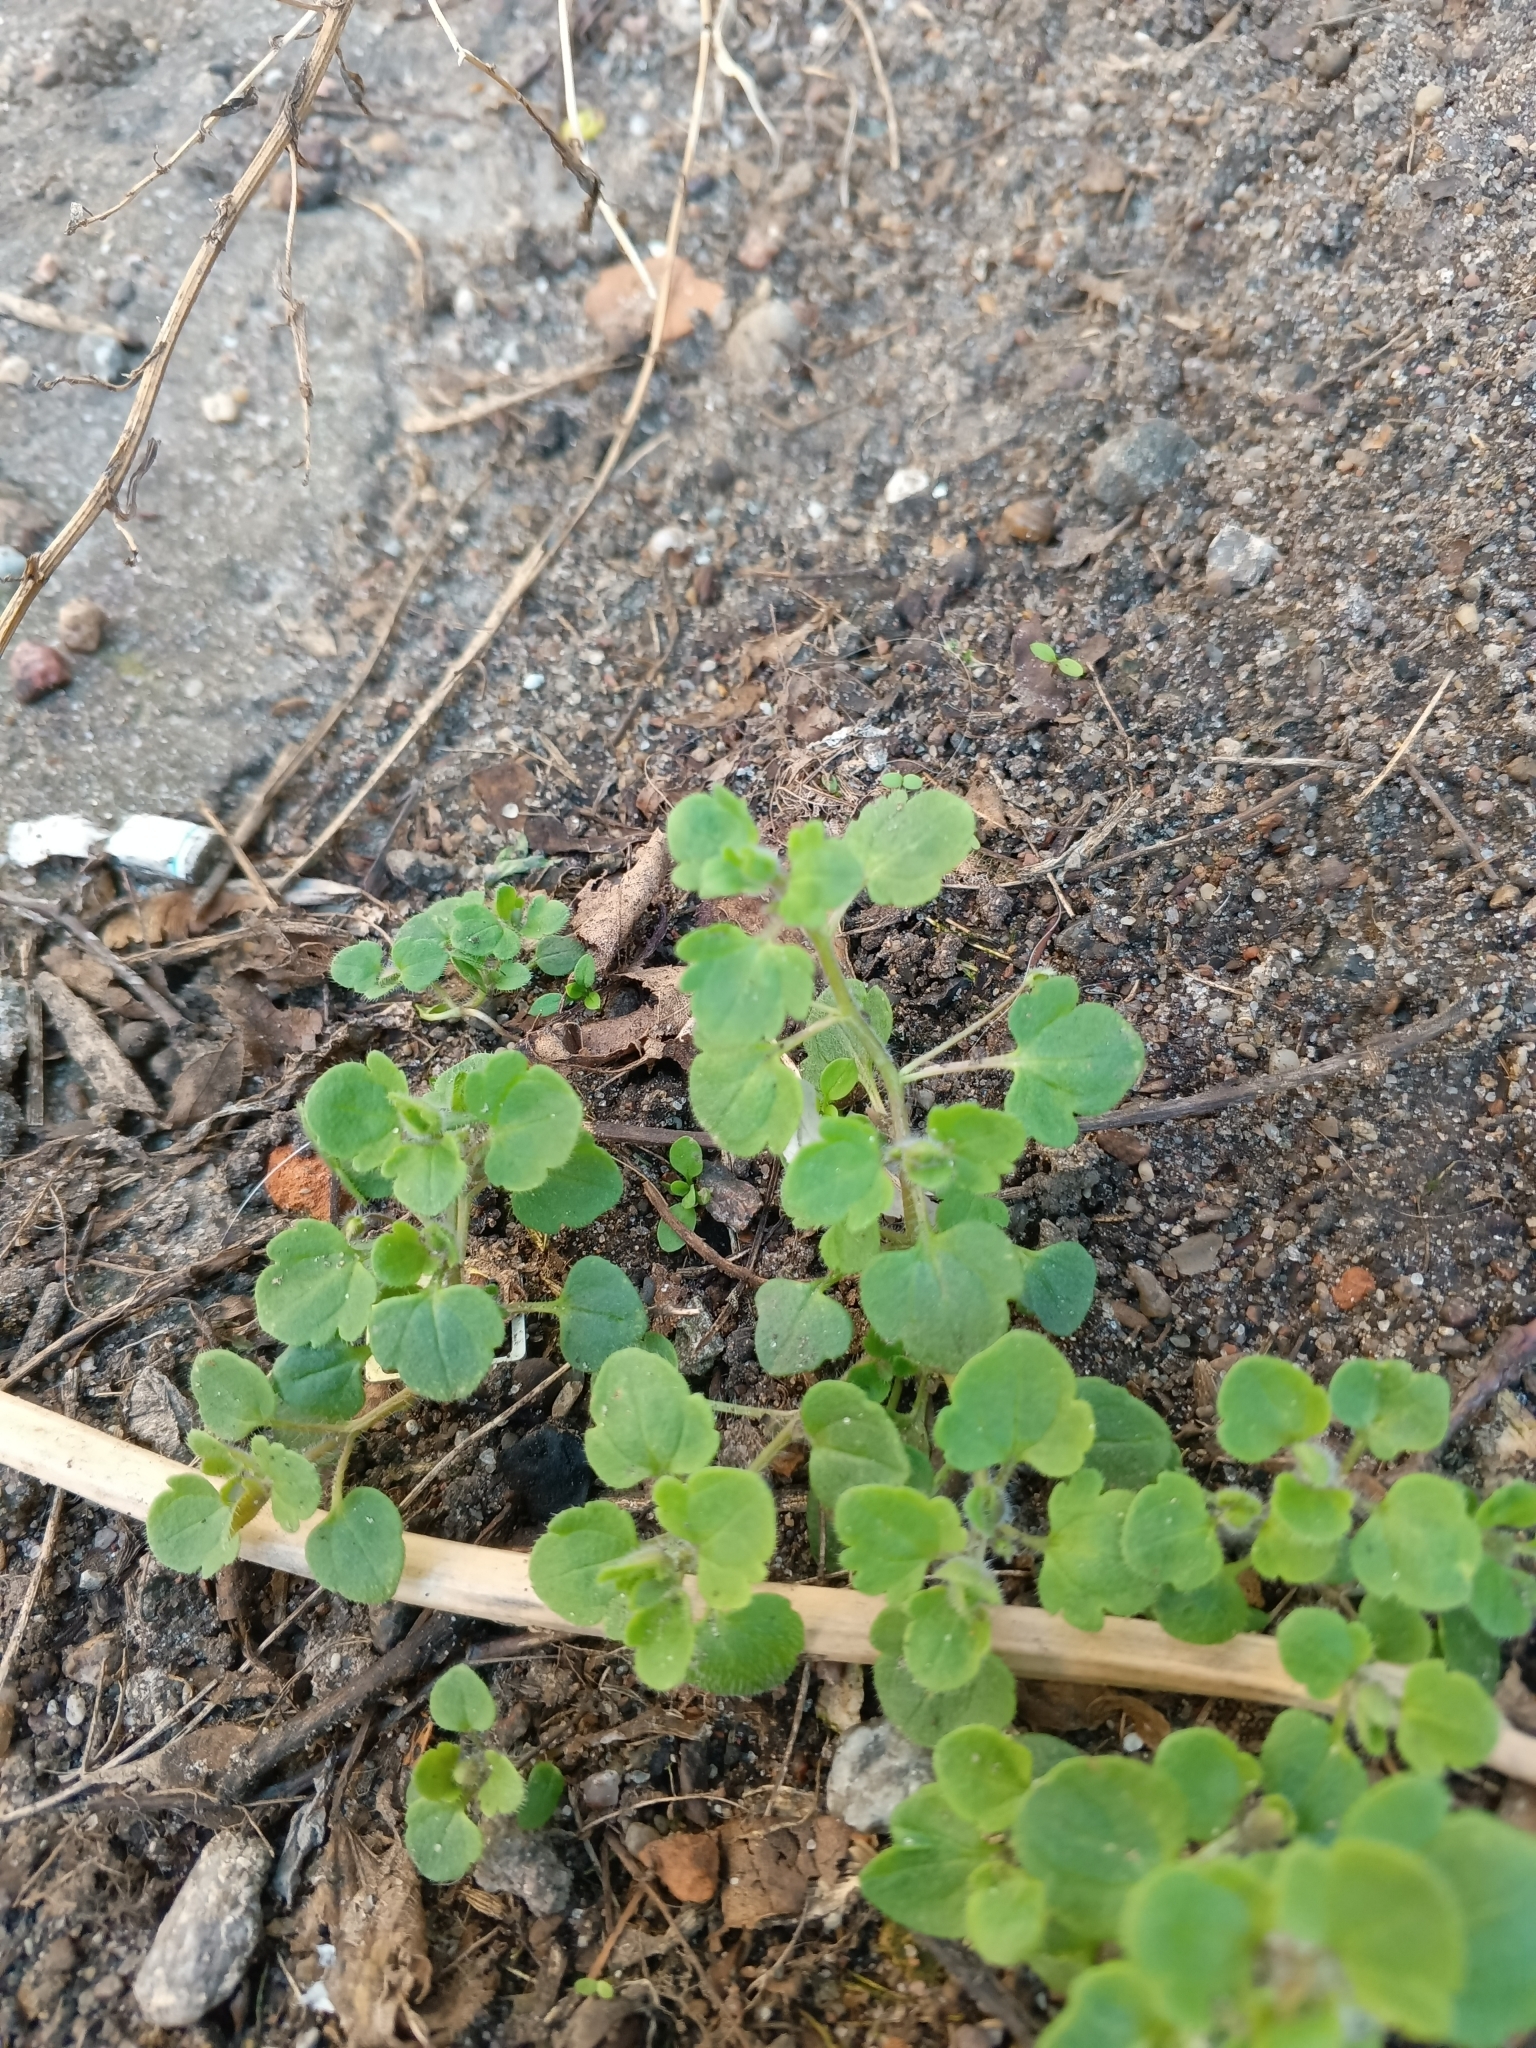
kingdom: Plantae
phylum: Tracheophyta
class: Magnoliopsida
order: Lamiales
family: Plantaginaceae
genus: Veronica
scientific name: Veronica sublobata
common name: False ivy-leaved speedwell
